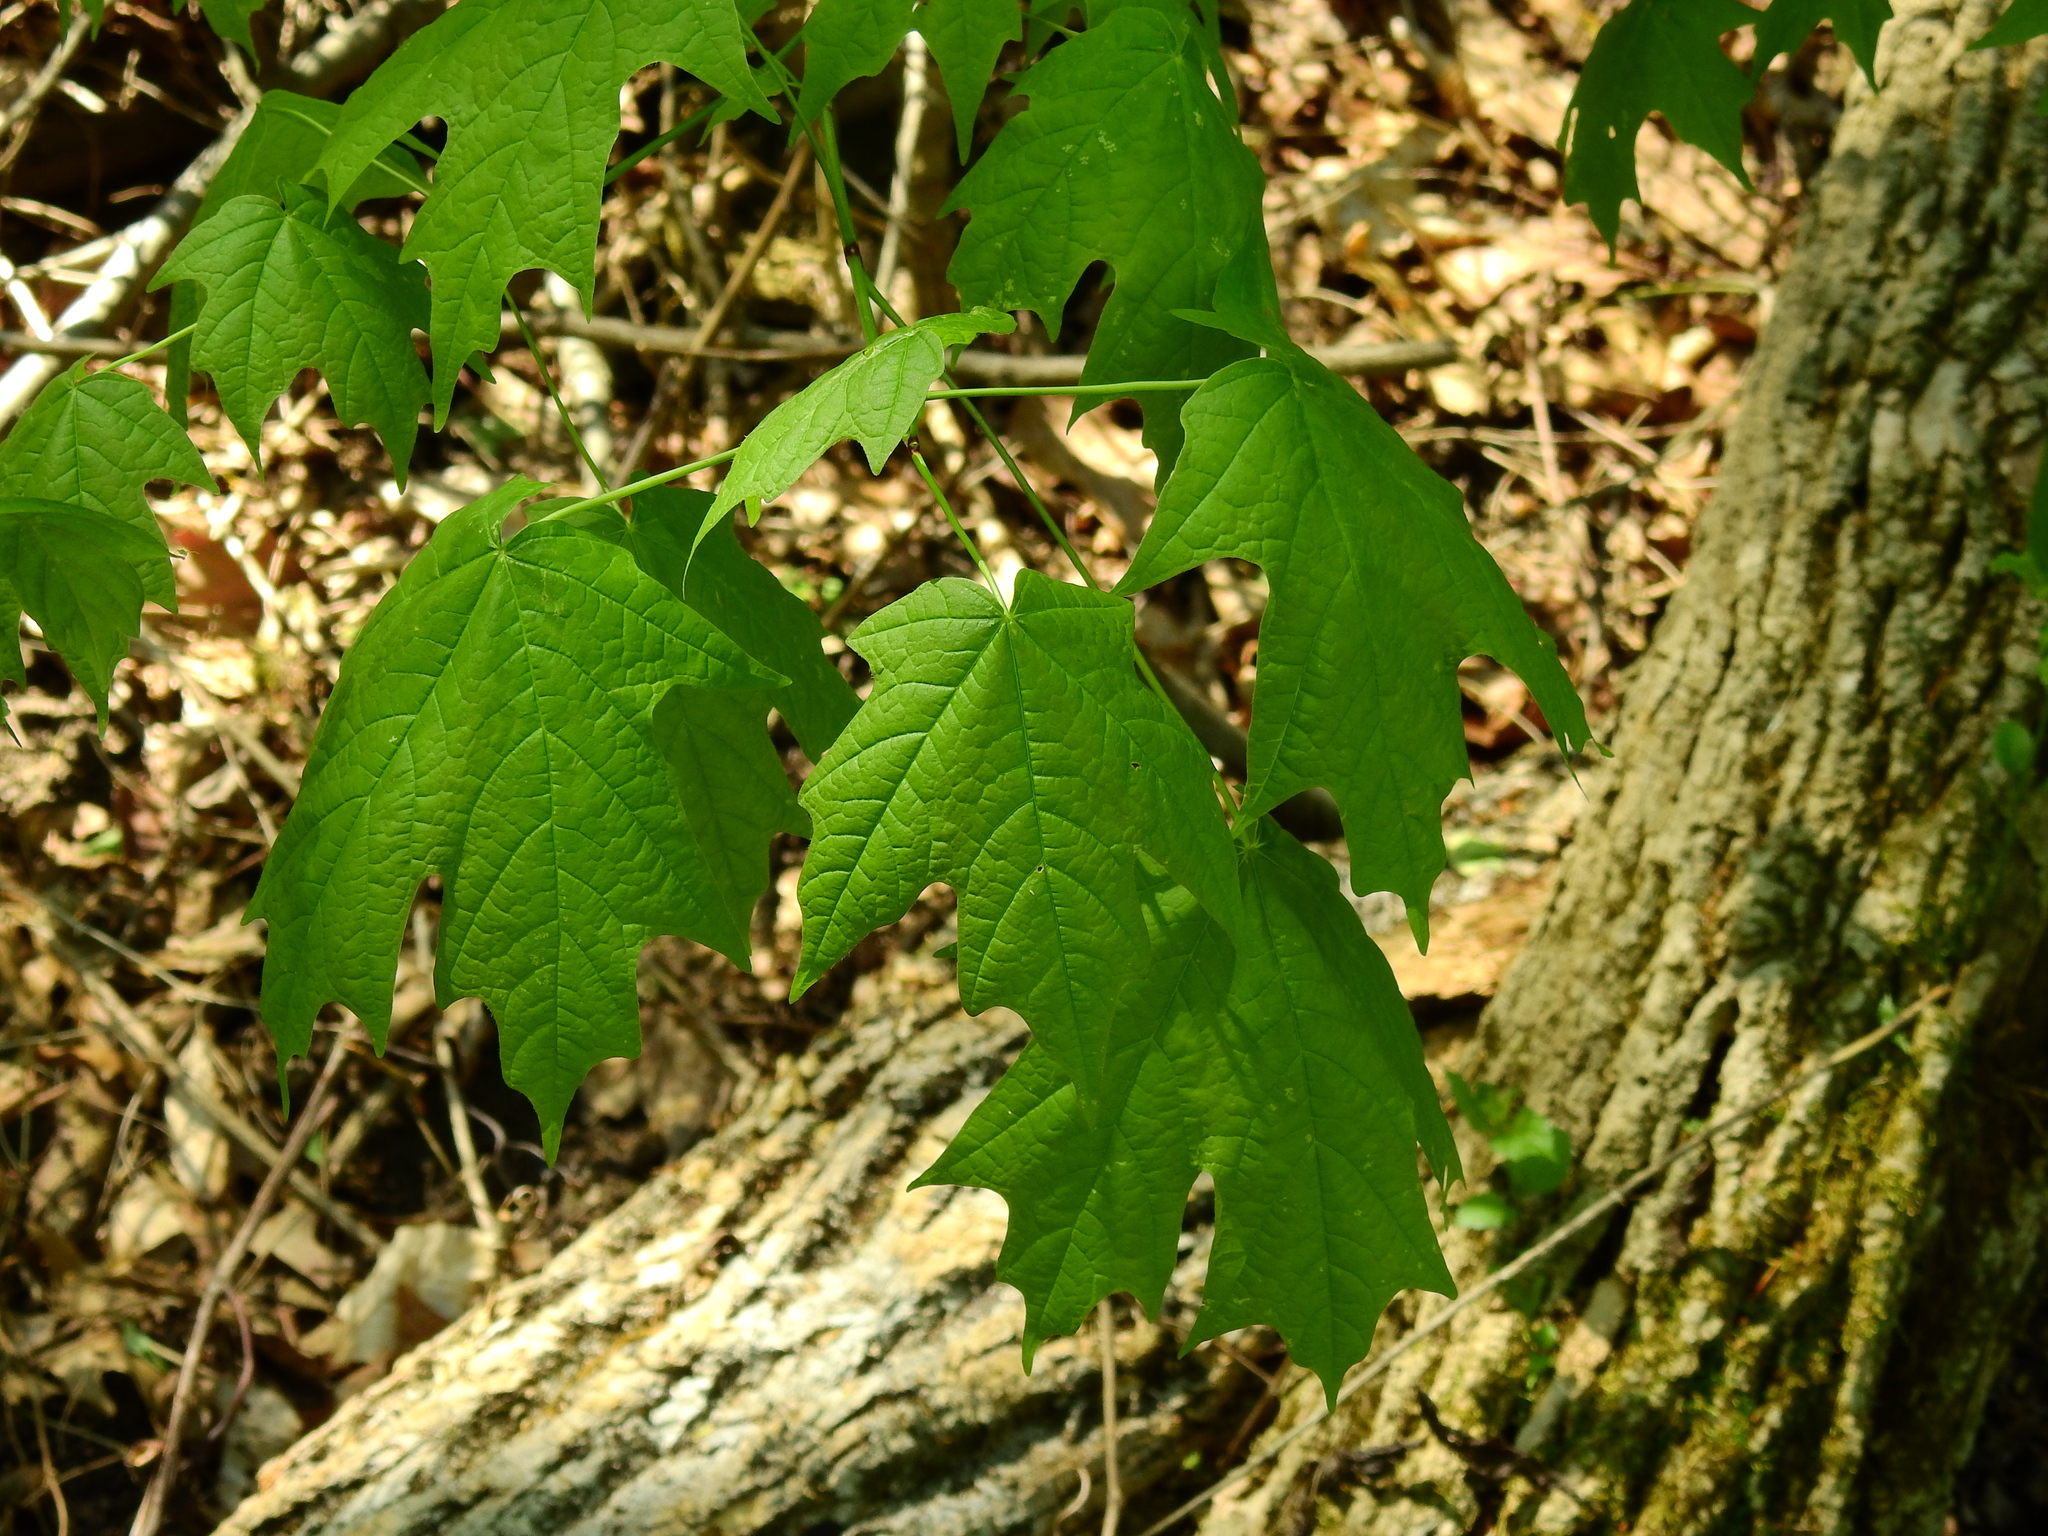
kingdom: Plantae
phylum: Tracheophyta
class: Magnoliopsida
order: Sapindales
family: Sapindaceae
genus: Acer
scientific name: Acer saccharum
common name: Sugar maple
